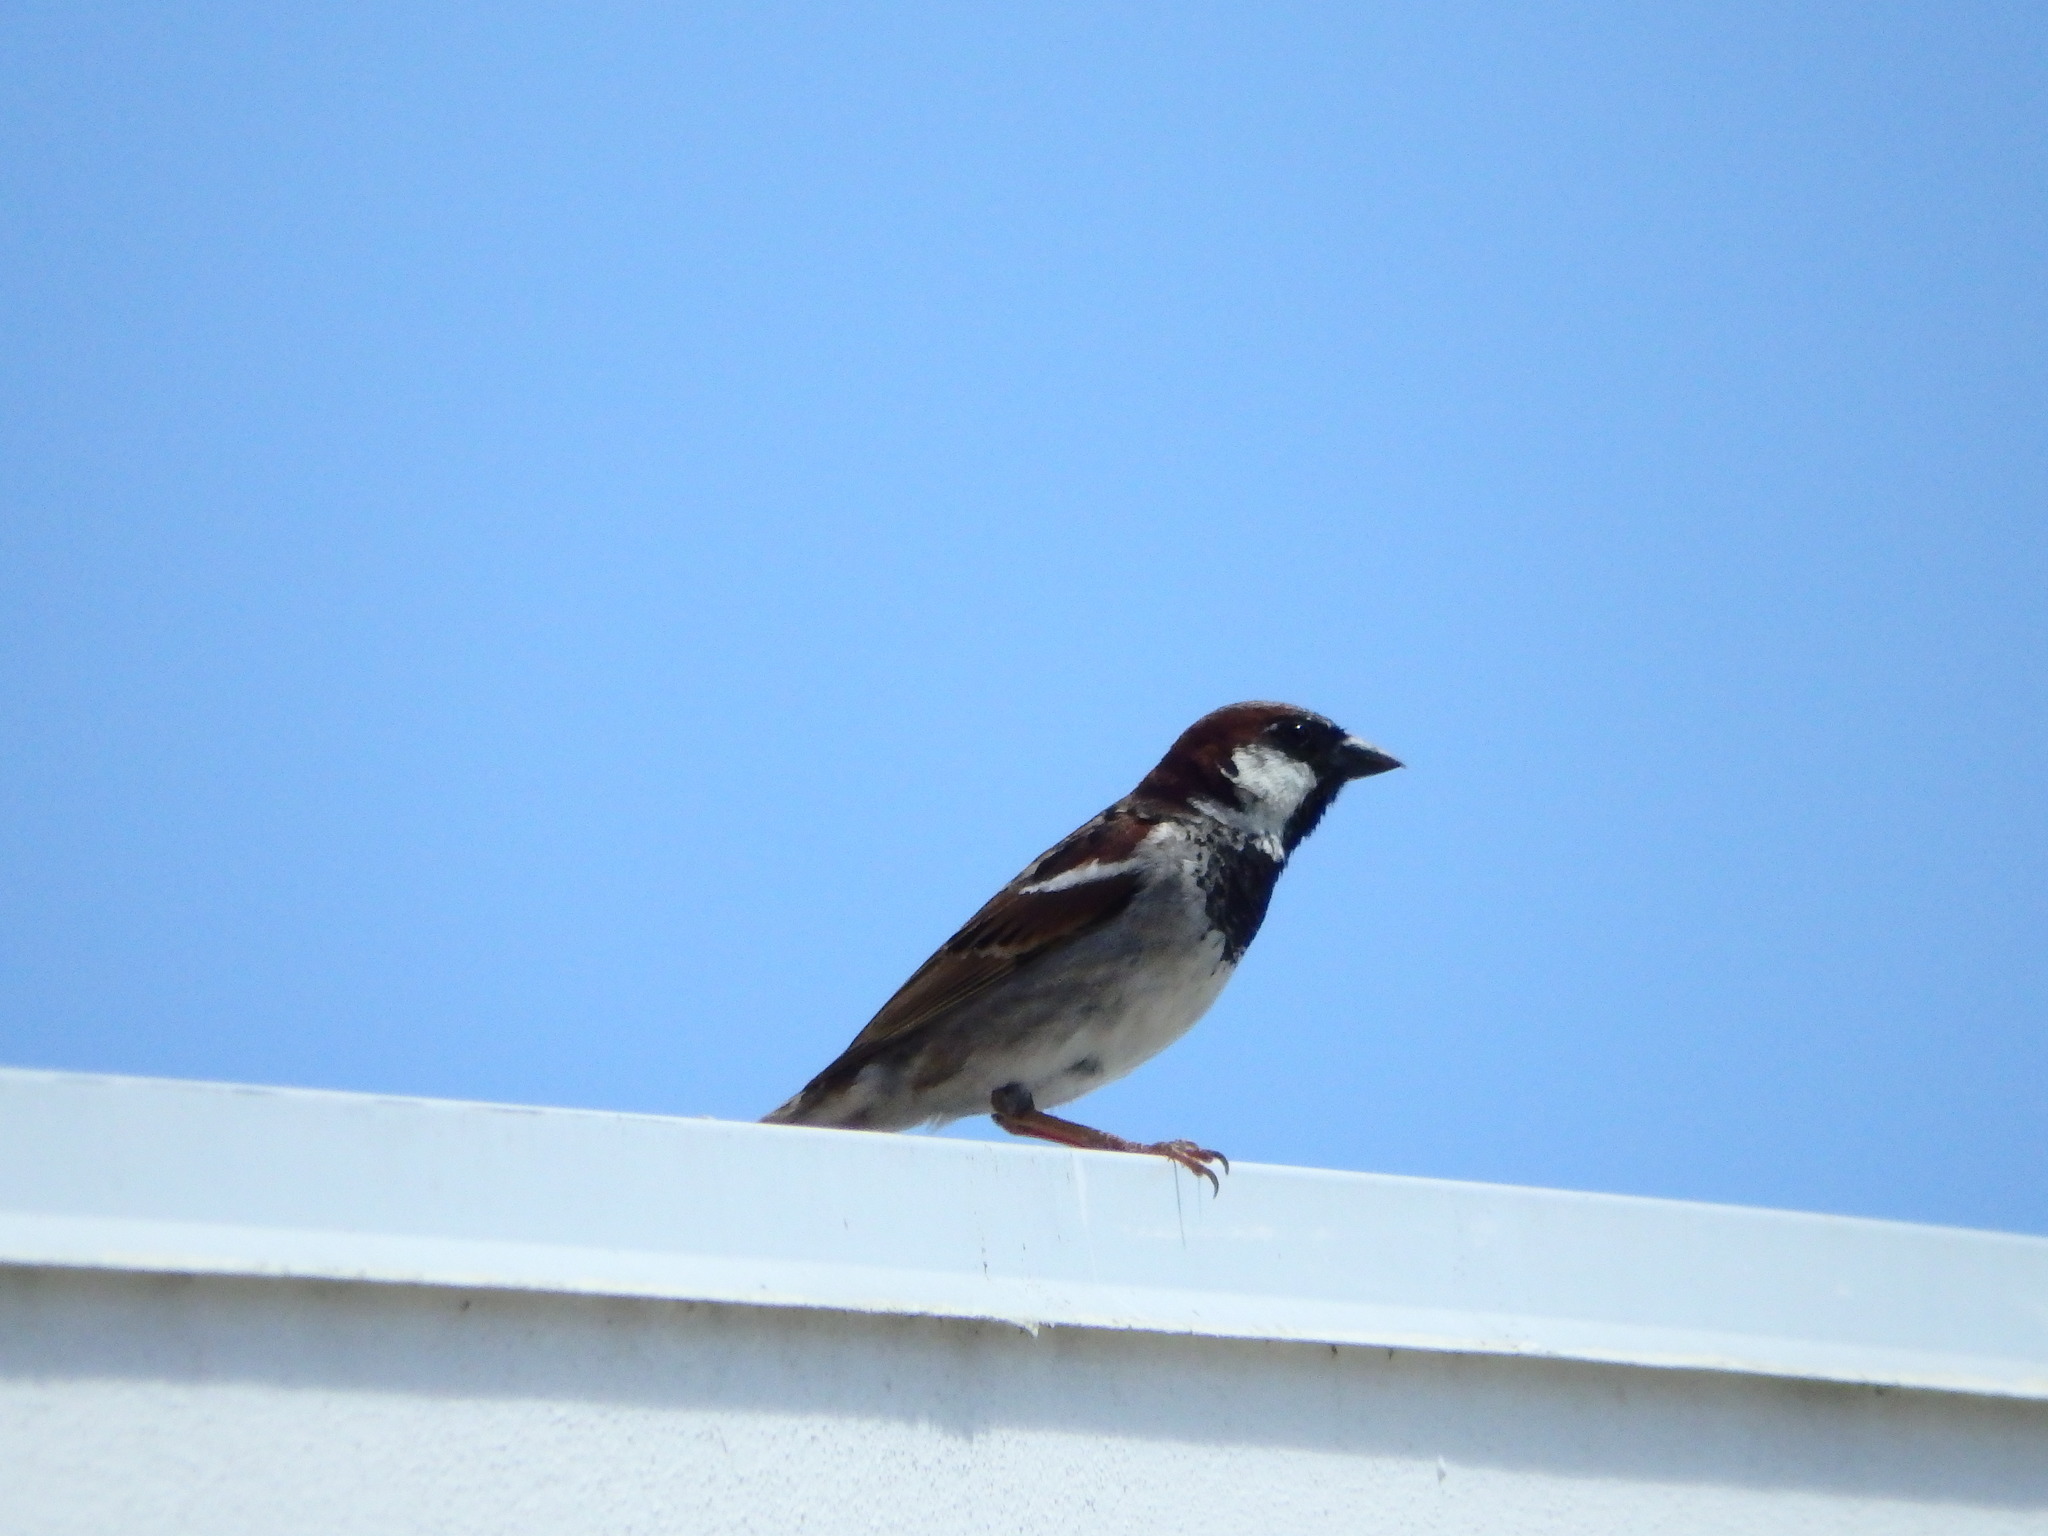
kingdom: Animalia
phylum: Chordata
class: Aves
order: Passeriformes
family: Passeridae
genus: Passer
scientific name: Passer domesticus
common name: House sparrow
